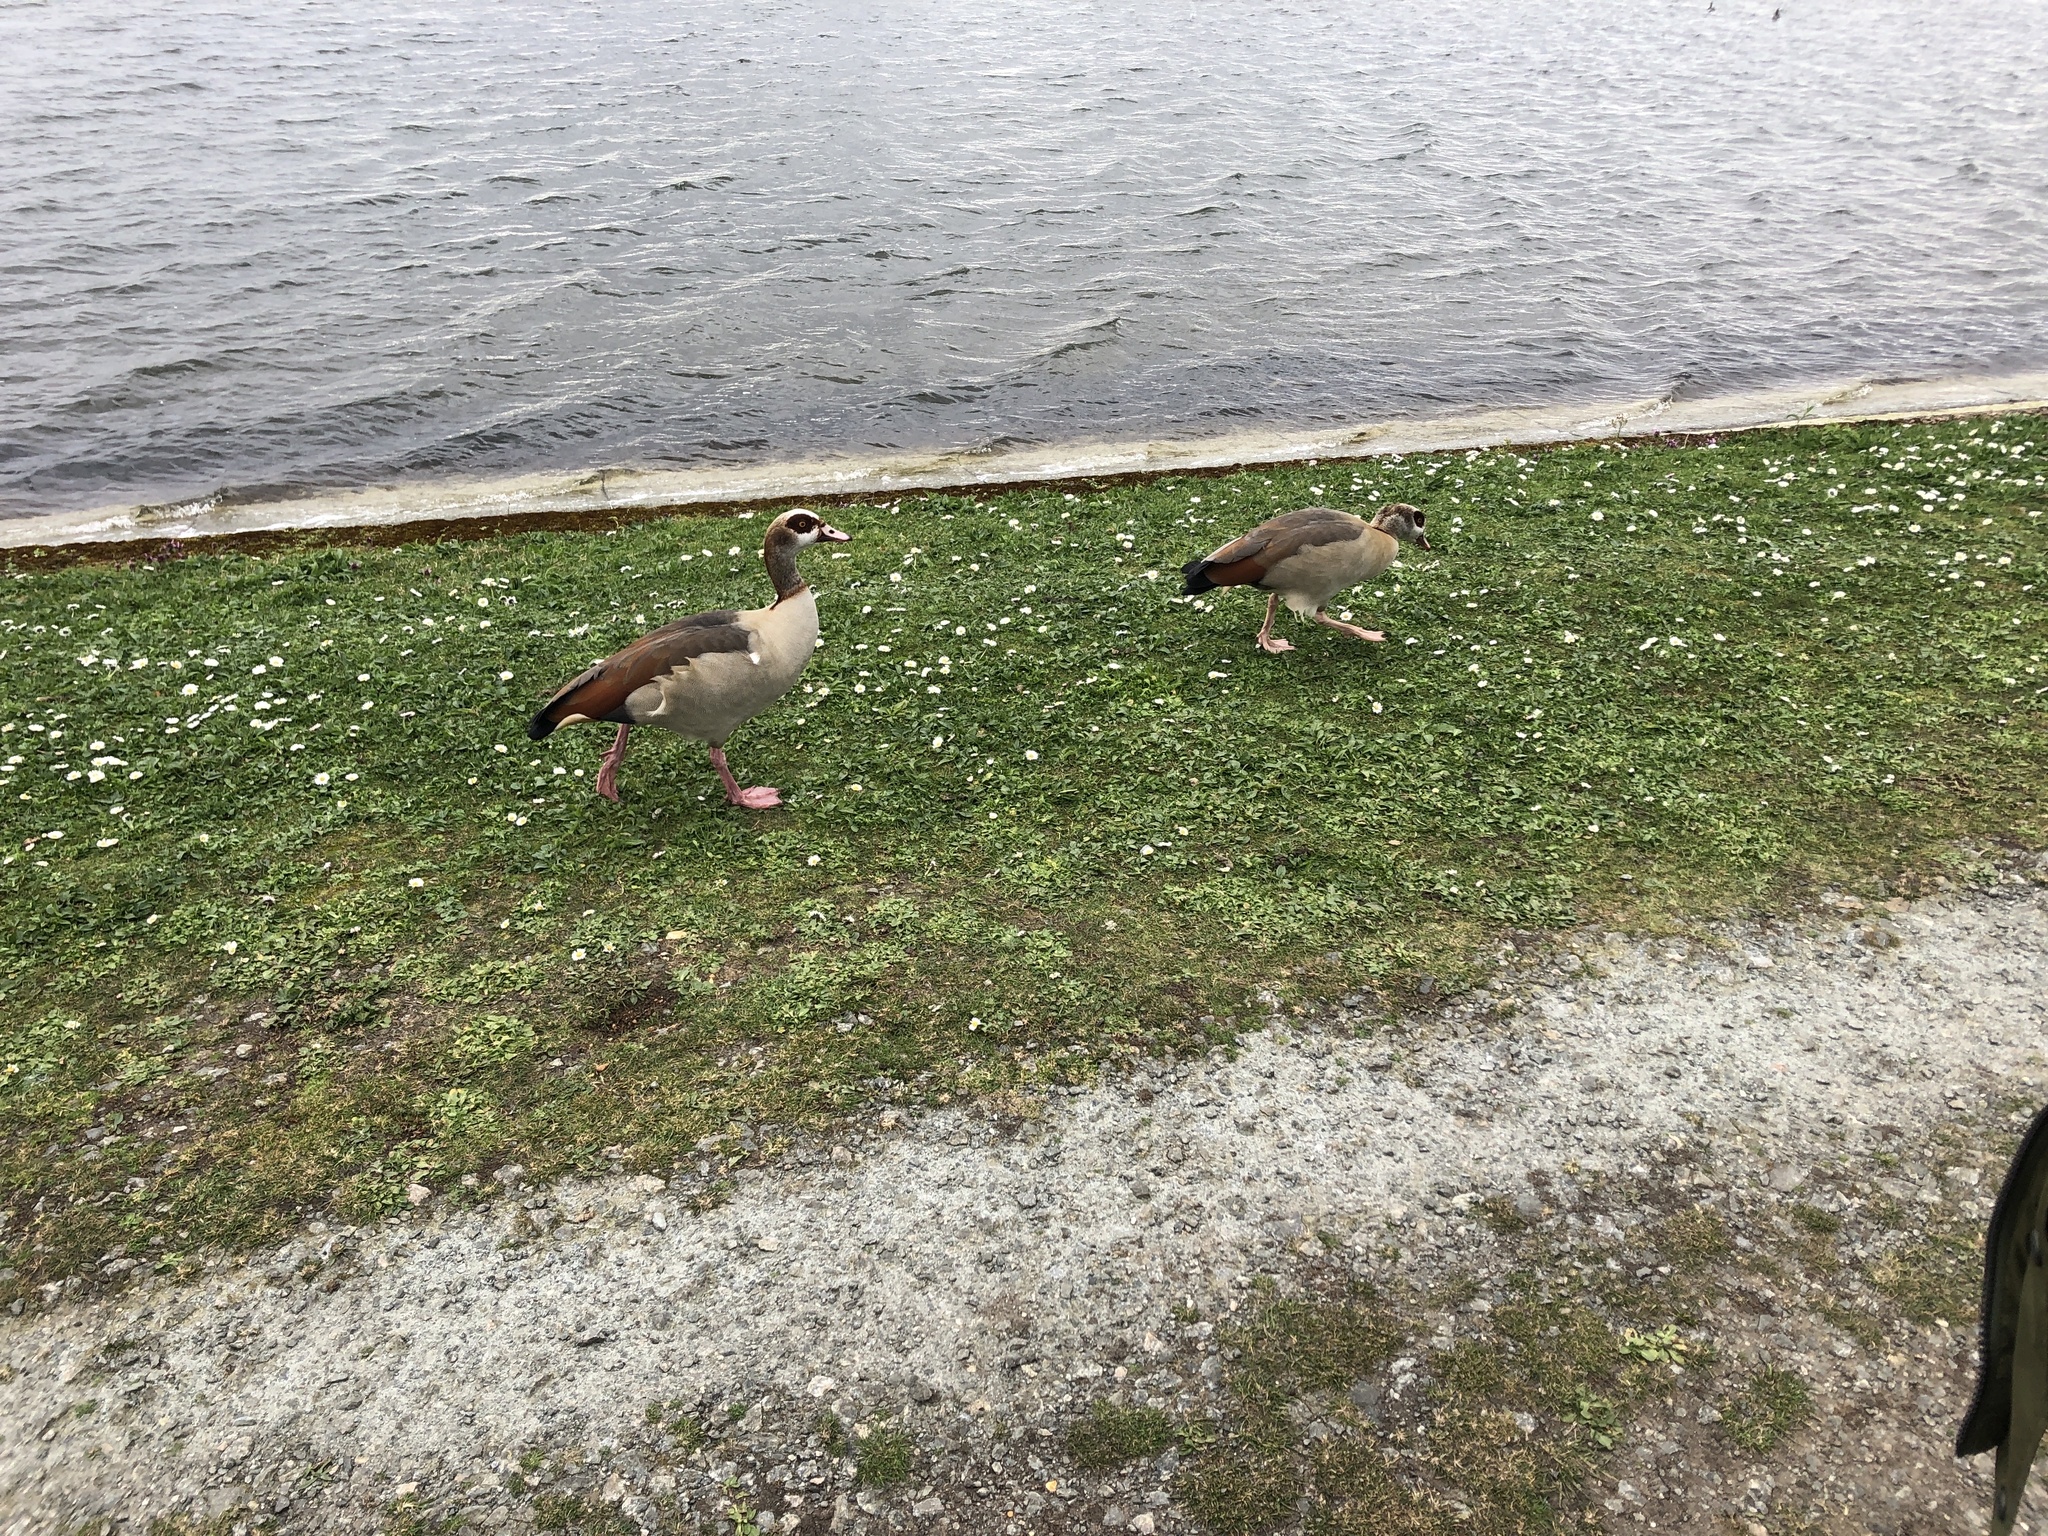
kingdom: Animalia
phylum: Chordata
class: Aves
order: Anseriformes
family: Anatidae
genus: Alopochen
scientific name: Alopochen aegyptiaca
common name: Egyptian goose
